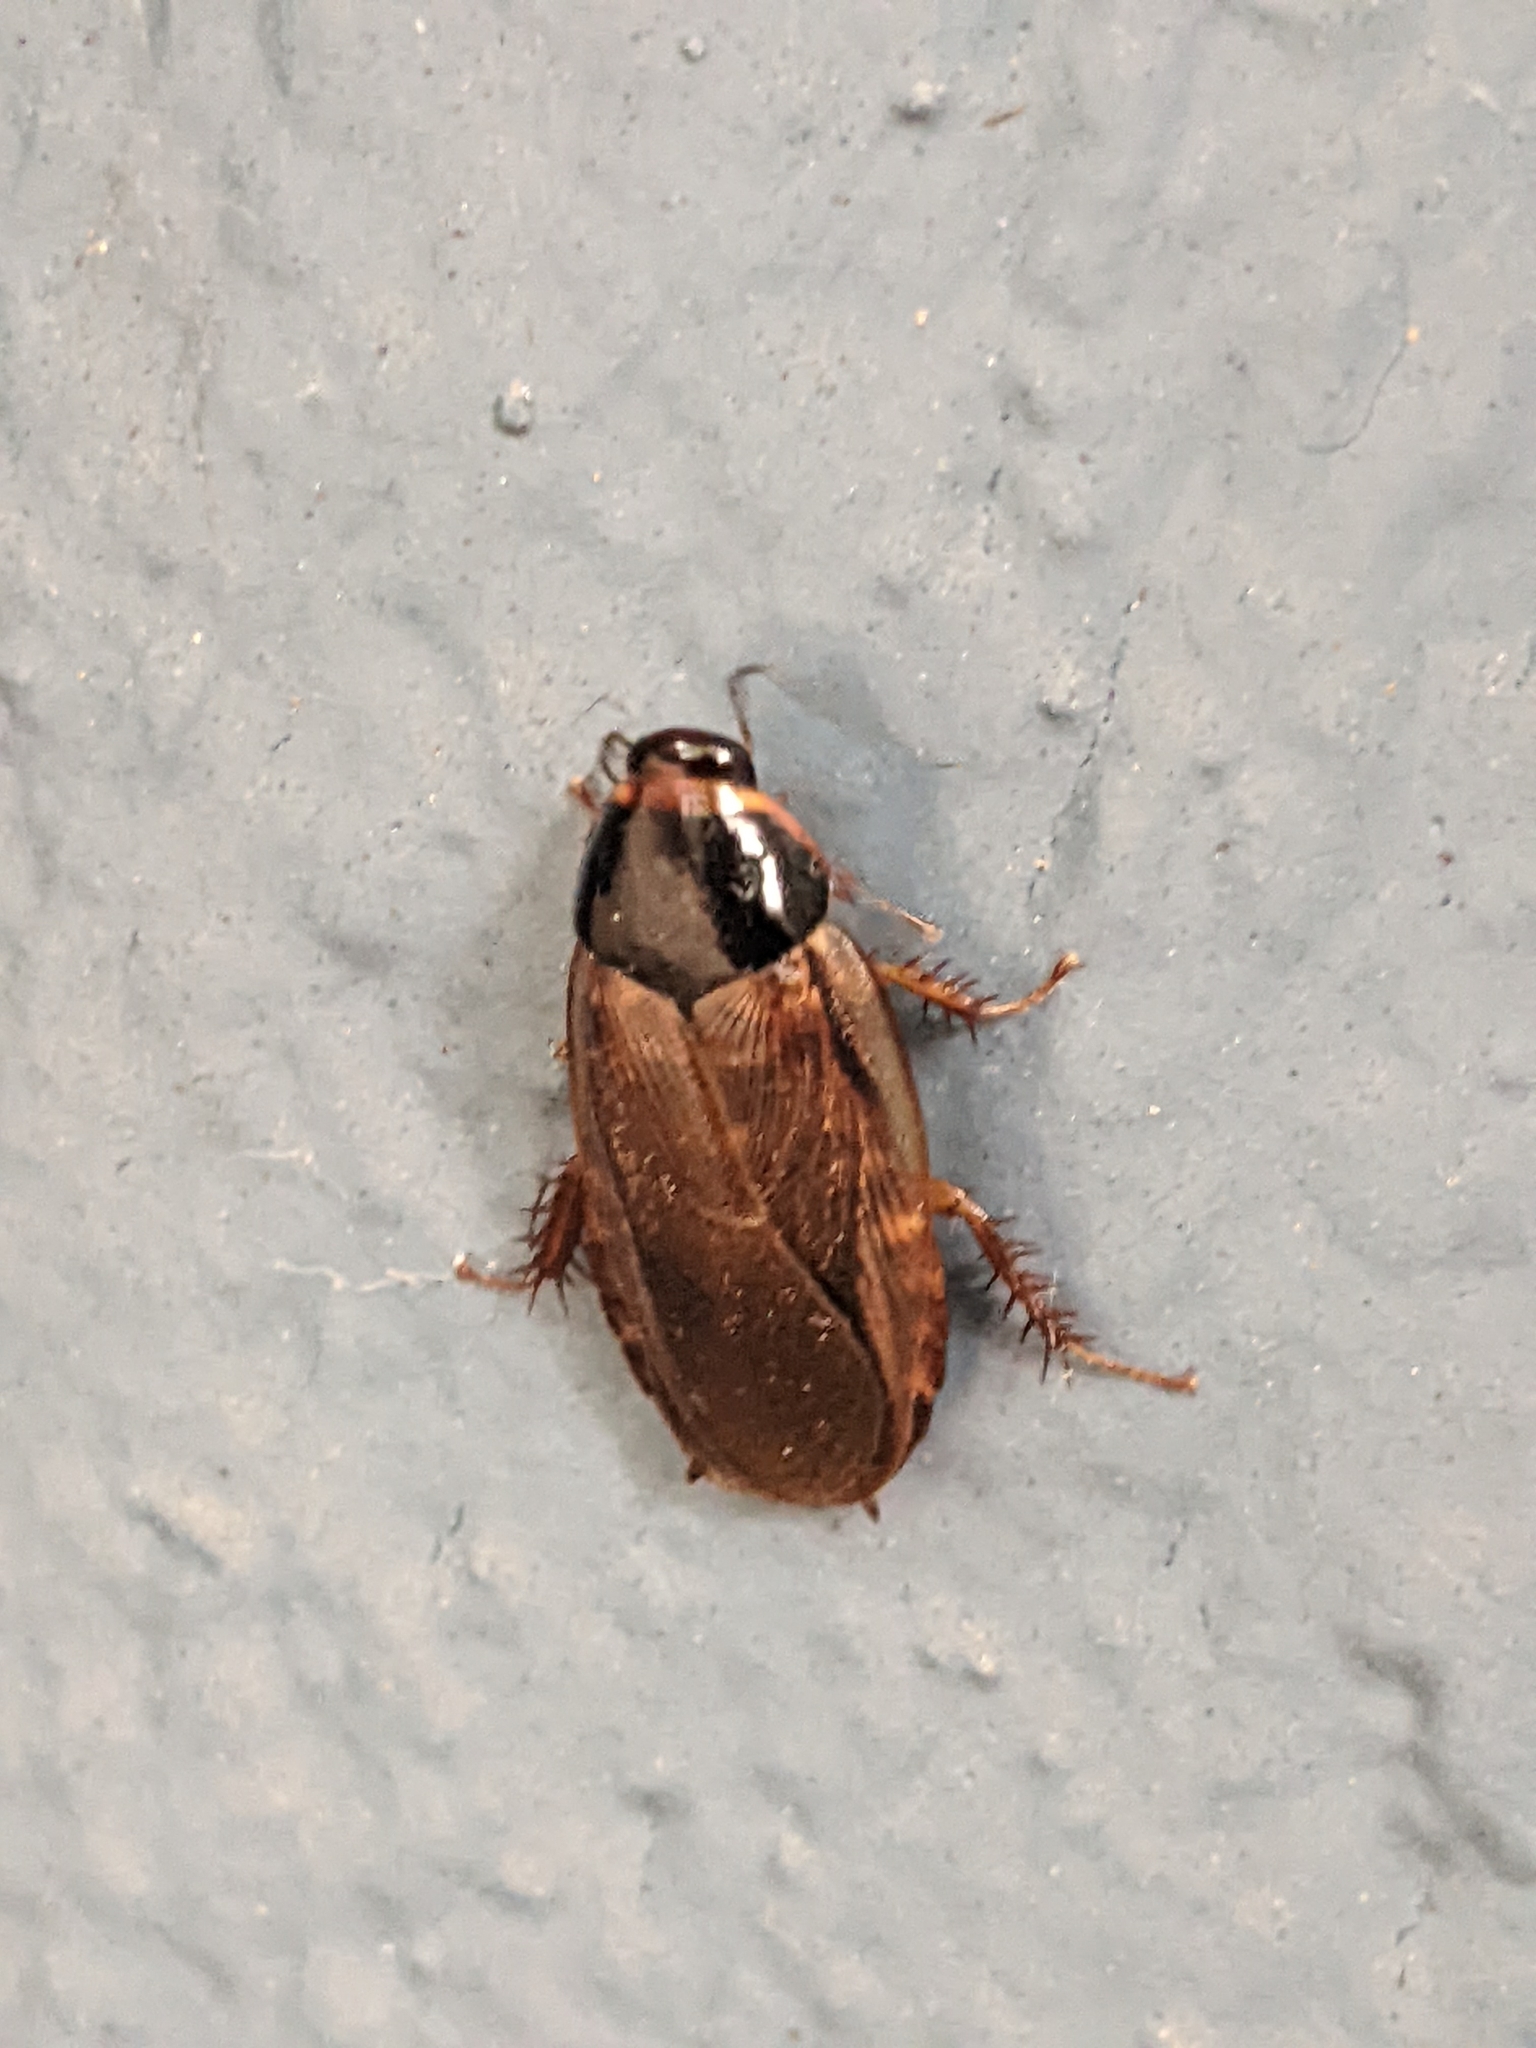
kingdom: Animalia
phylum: Arthropoda
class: Insecta
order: Blattodea
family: Blaberidae
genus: Pycnoscelus
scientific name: Pycnoscelus surinamensis
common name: Surinam cockroach
